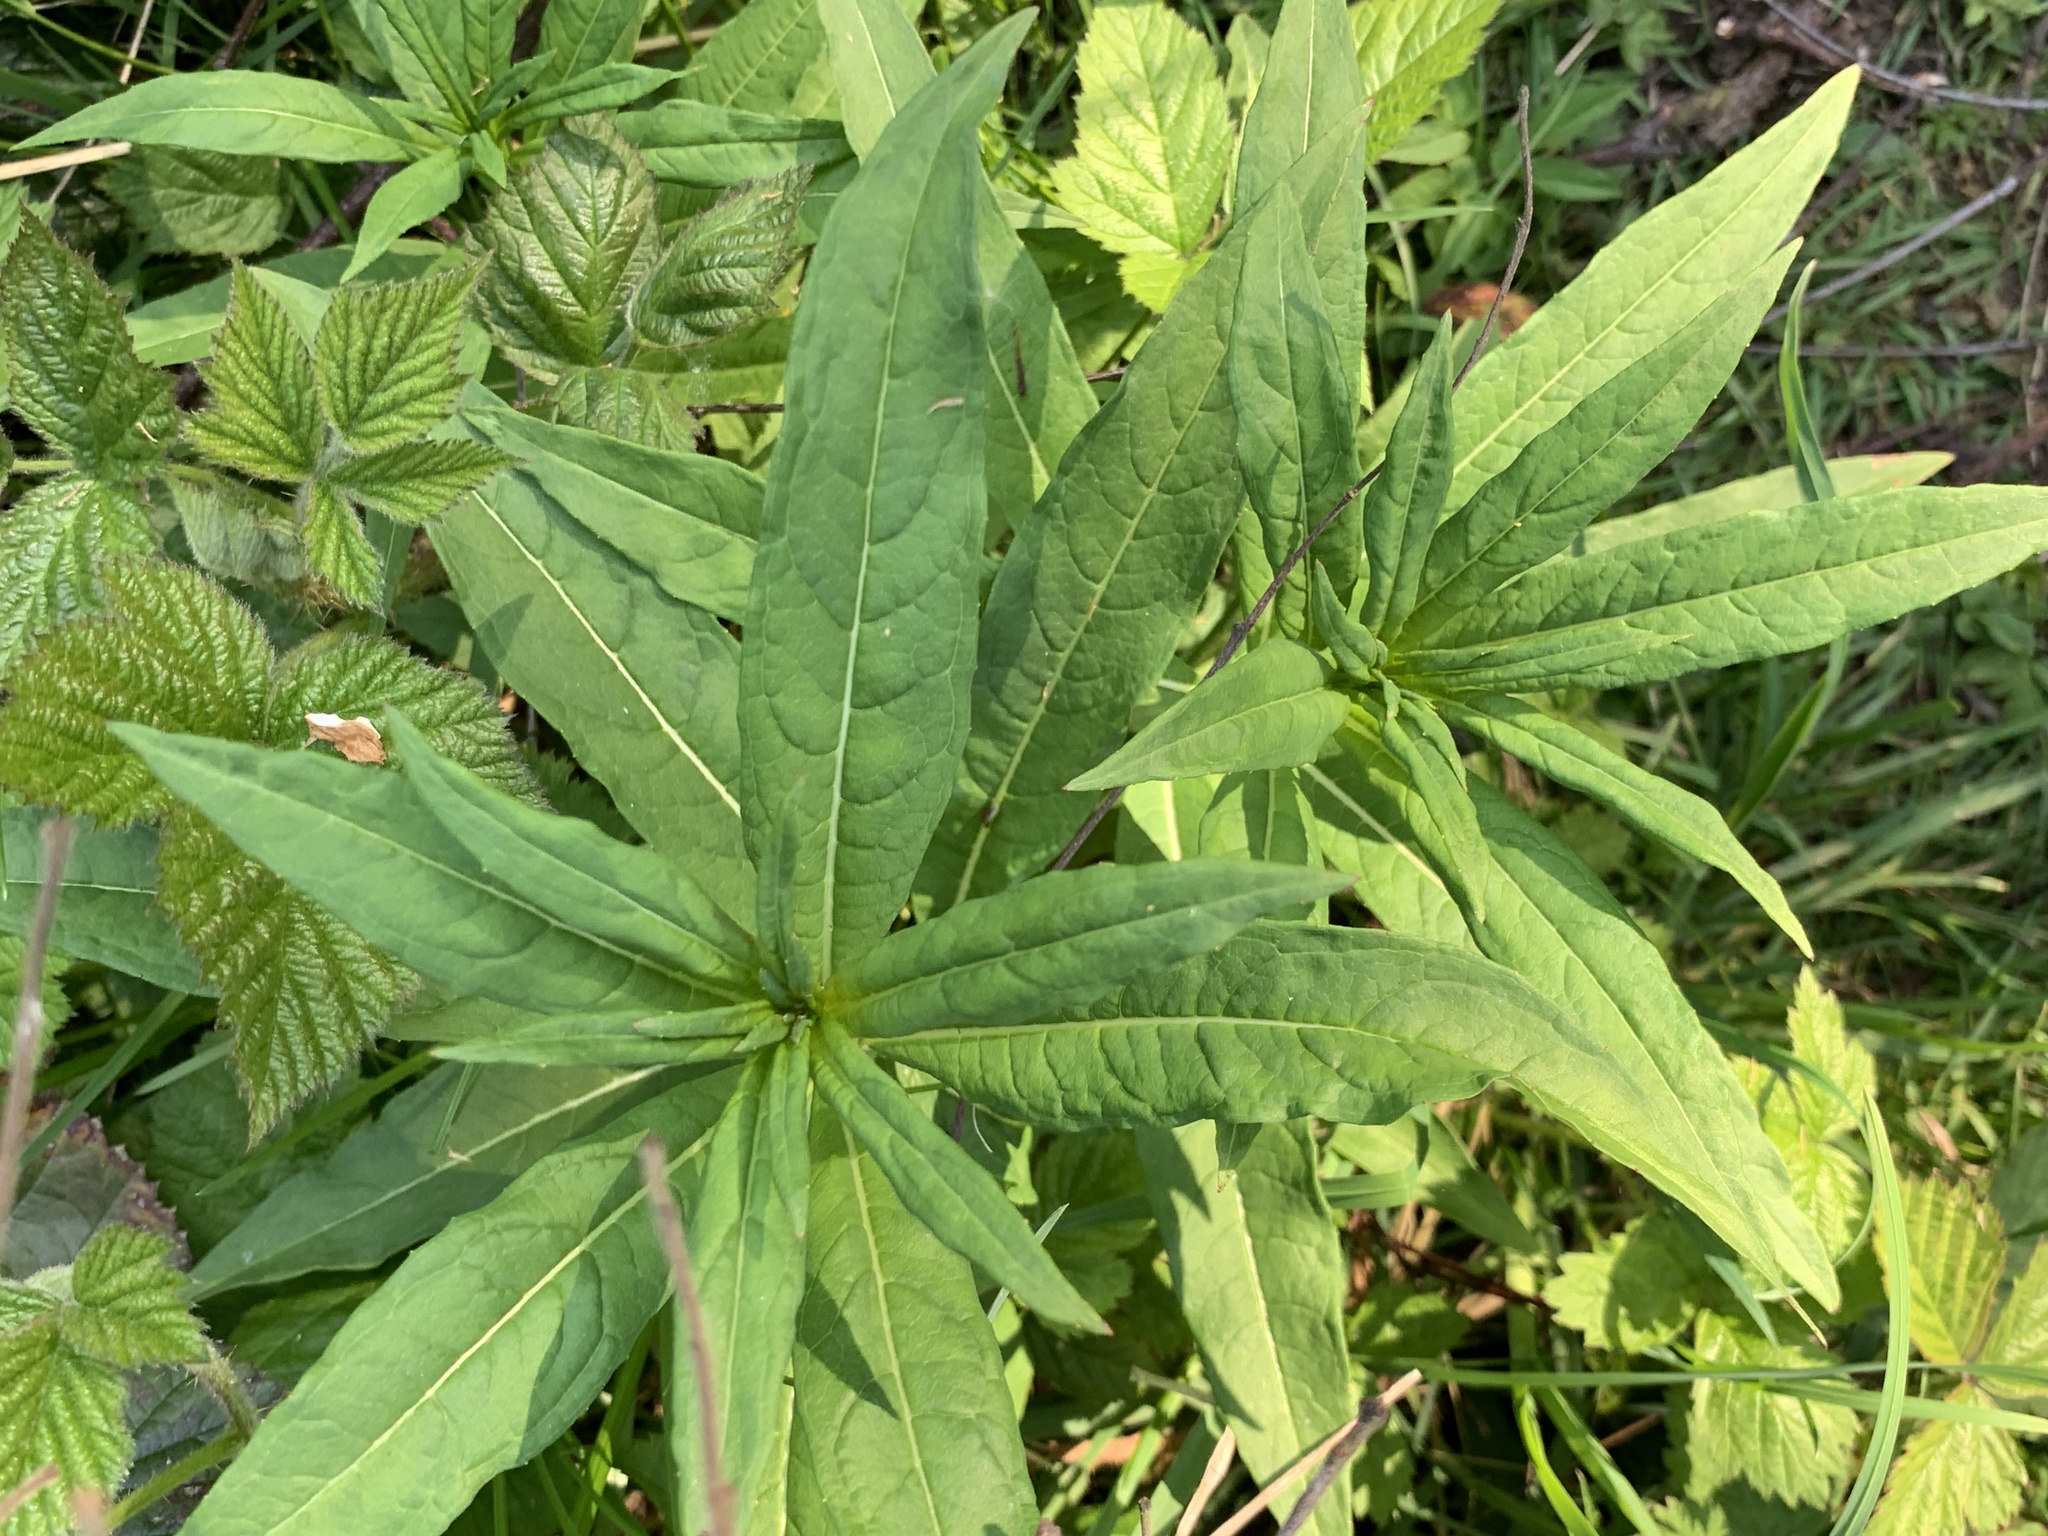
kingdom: Plantae
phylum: Tracheophyta
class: Magnoliopsida
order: Myrtales
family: Onagraceae
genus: Chamaenerion
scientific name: Chamaenerion angustifolium
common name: Fireweed
